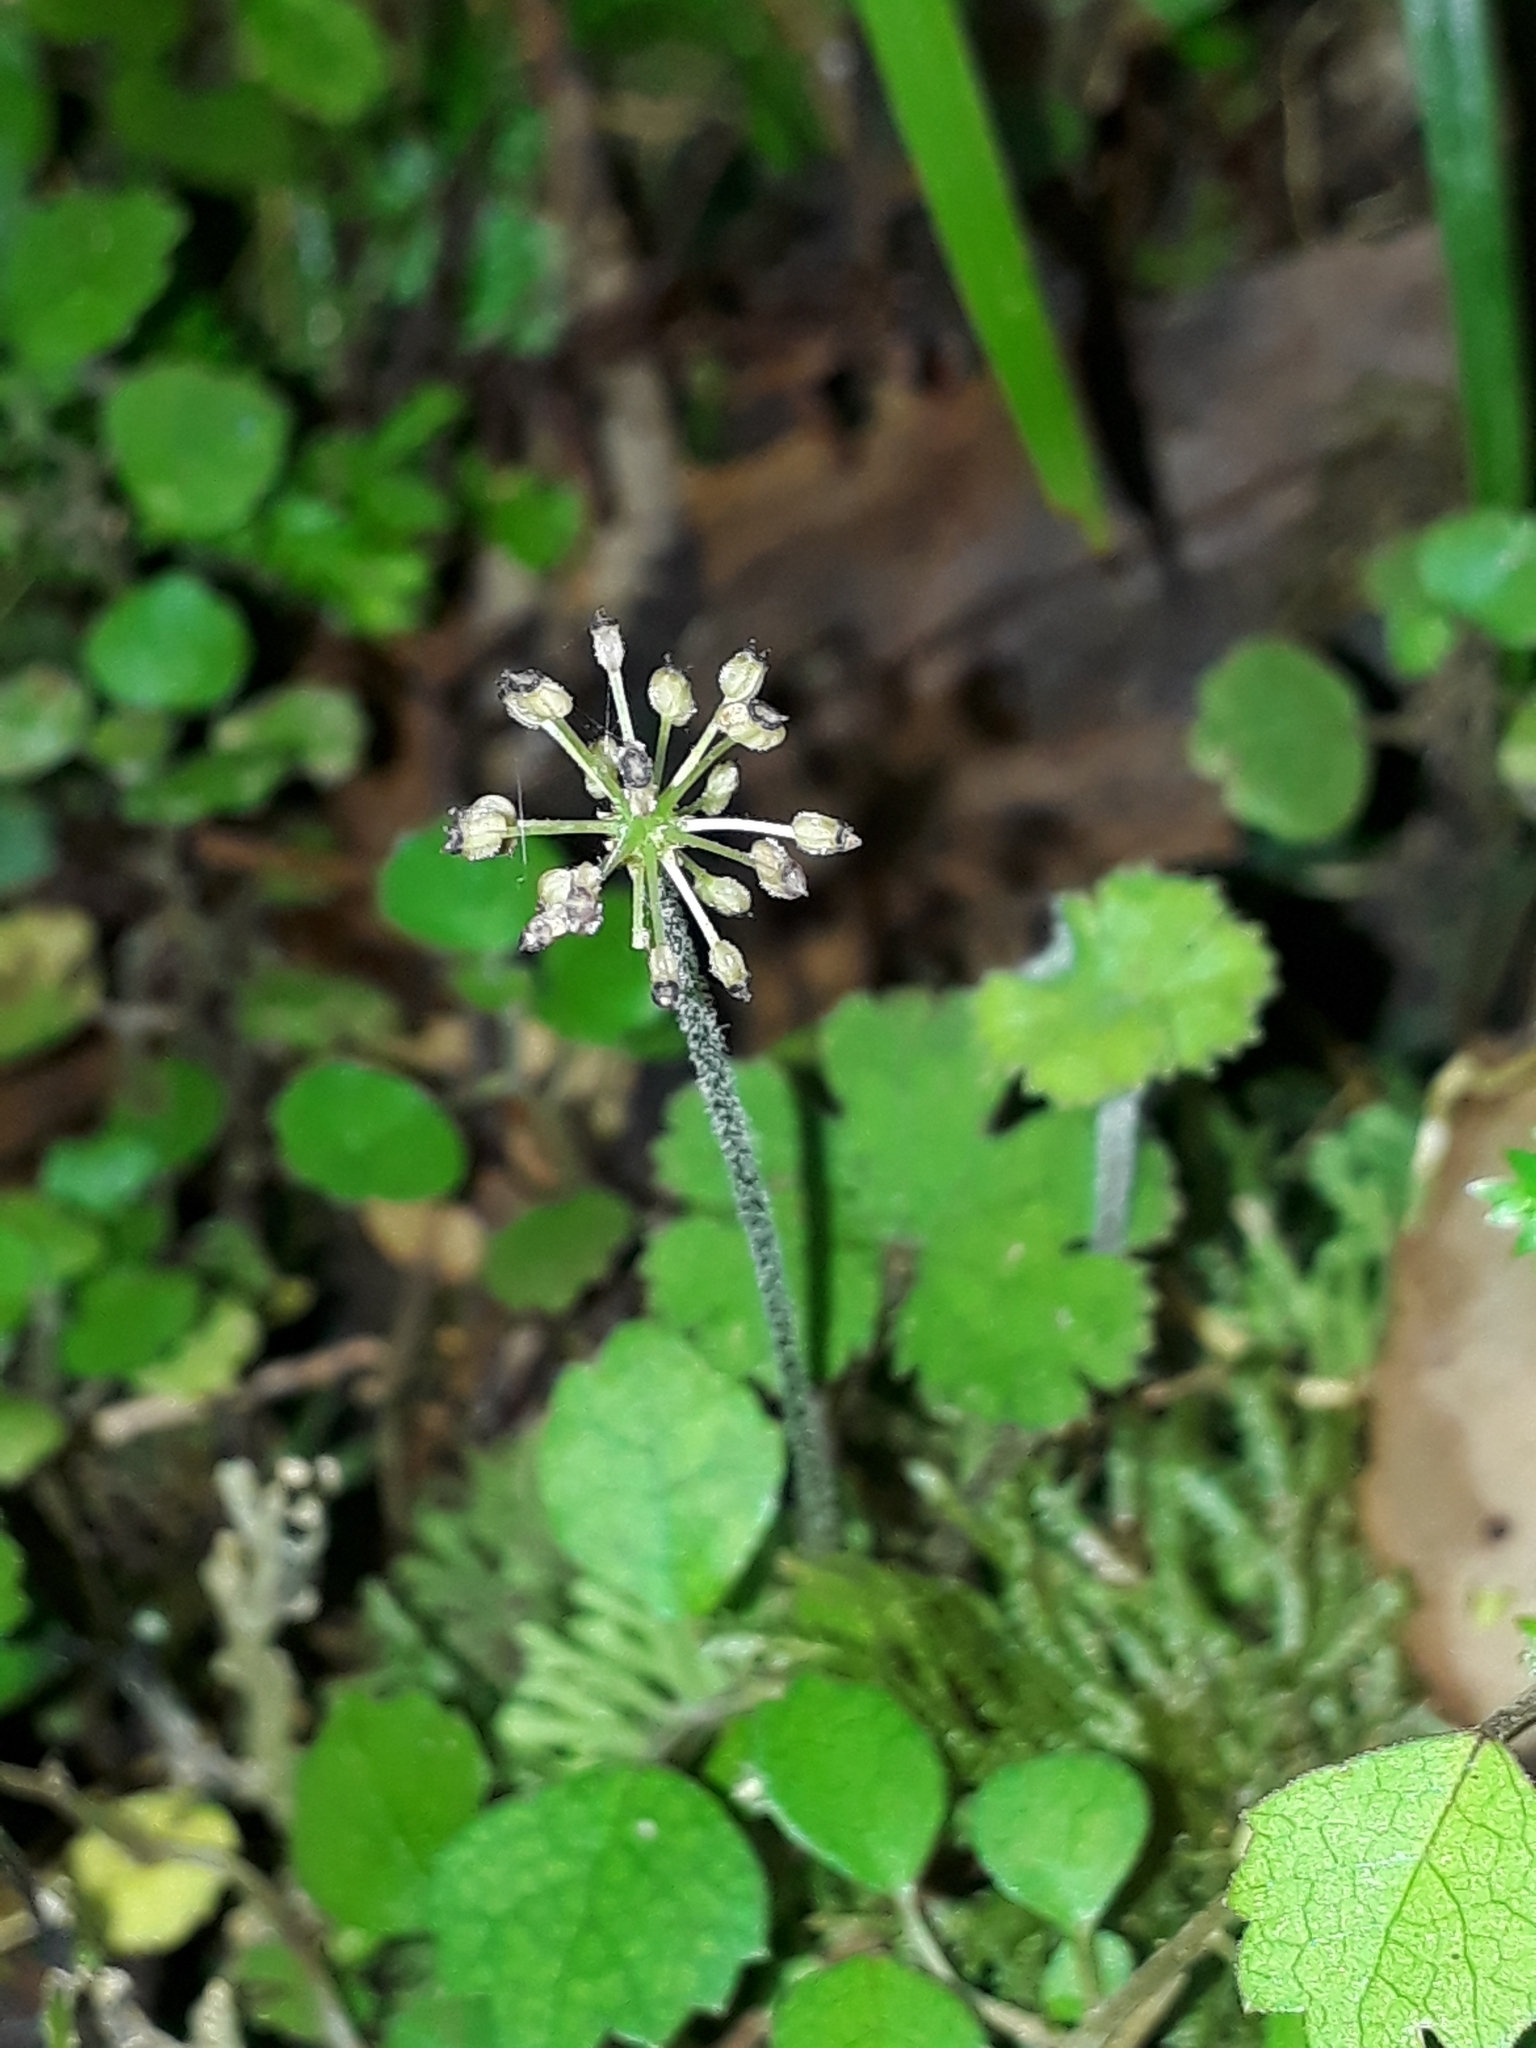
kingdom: Plantae
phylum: Tracheophyta
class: Magnoliopsida
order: Apiales
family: Araliaceae
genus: Hydrocotyle
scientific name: Hydrocotyle elongata
